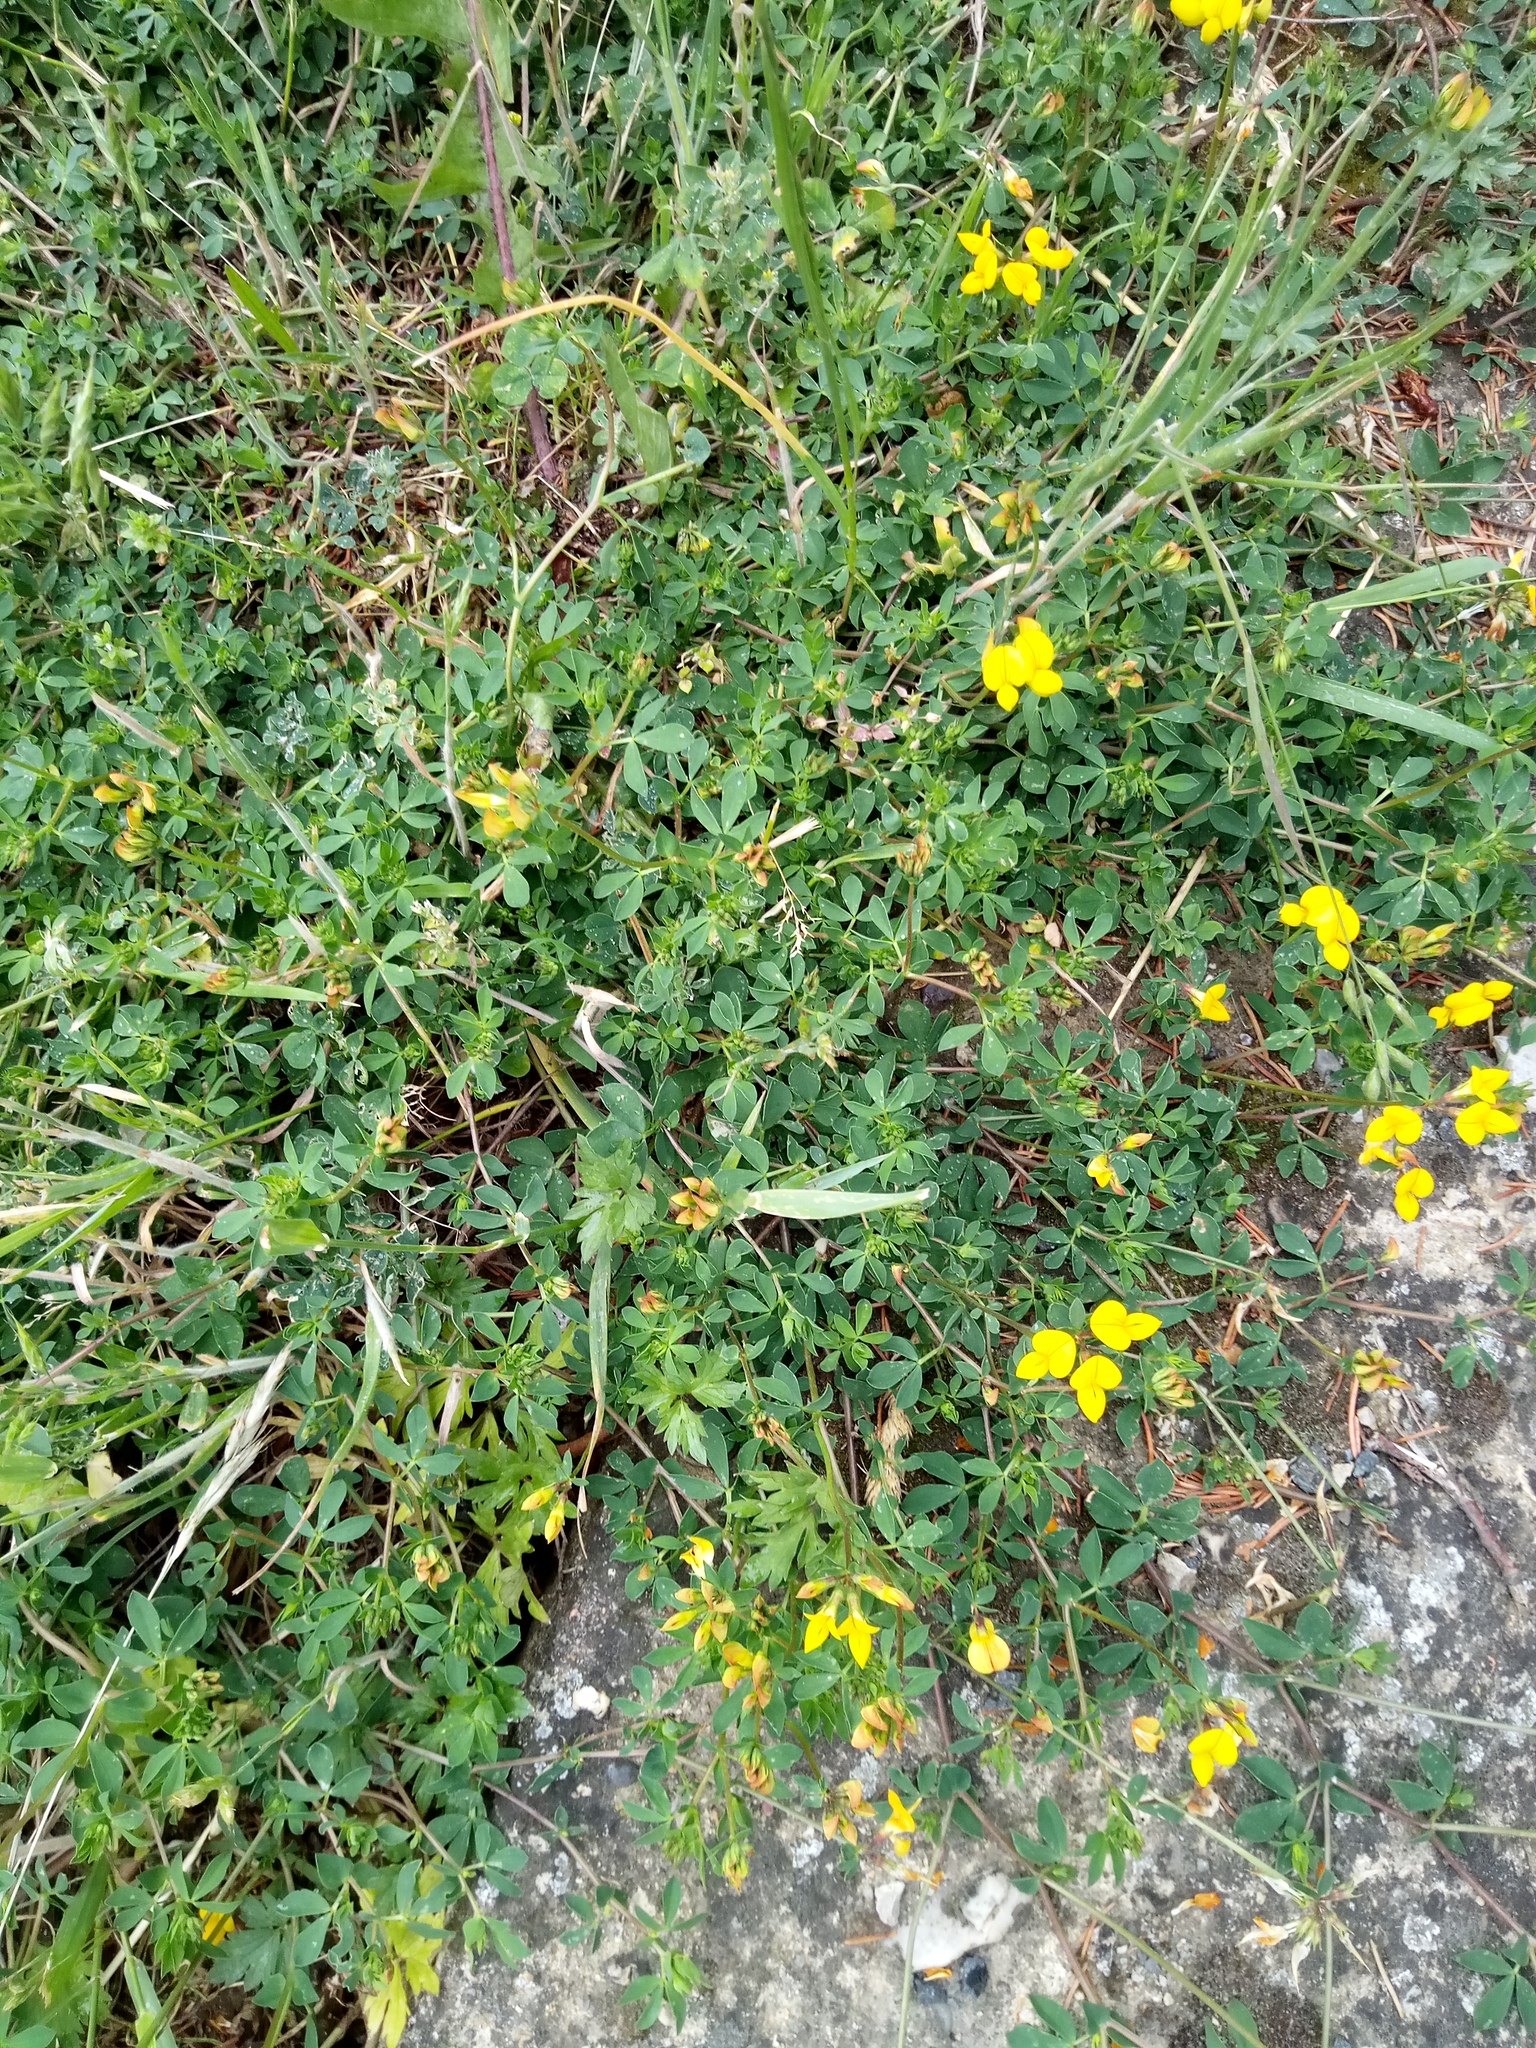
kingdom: Plantae
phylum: Tracheophyta
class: Magnoliopsida
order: Fabales
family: Fabaceae
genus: Lotus
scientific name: Lotus corniculatus
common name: Common bird's-foot-trefoil
